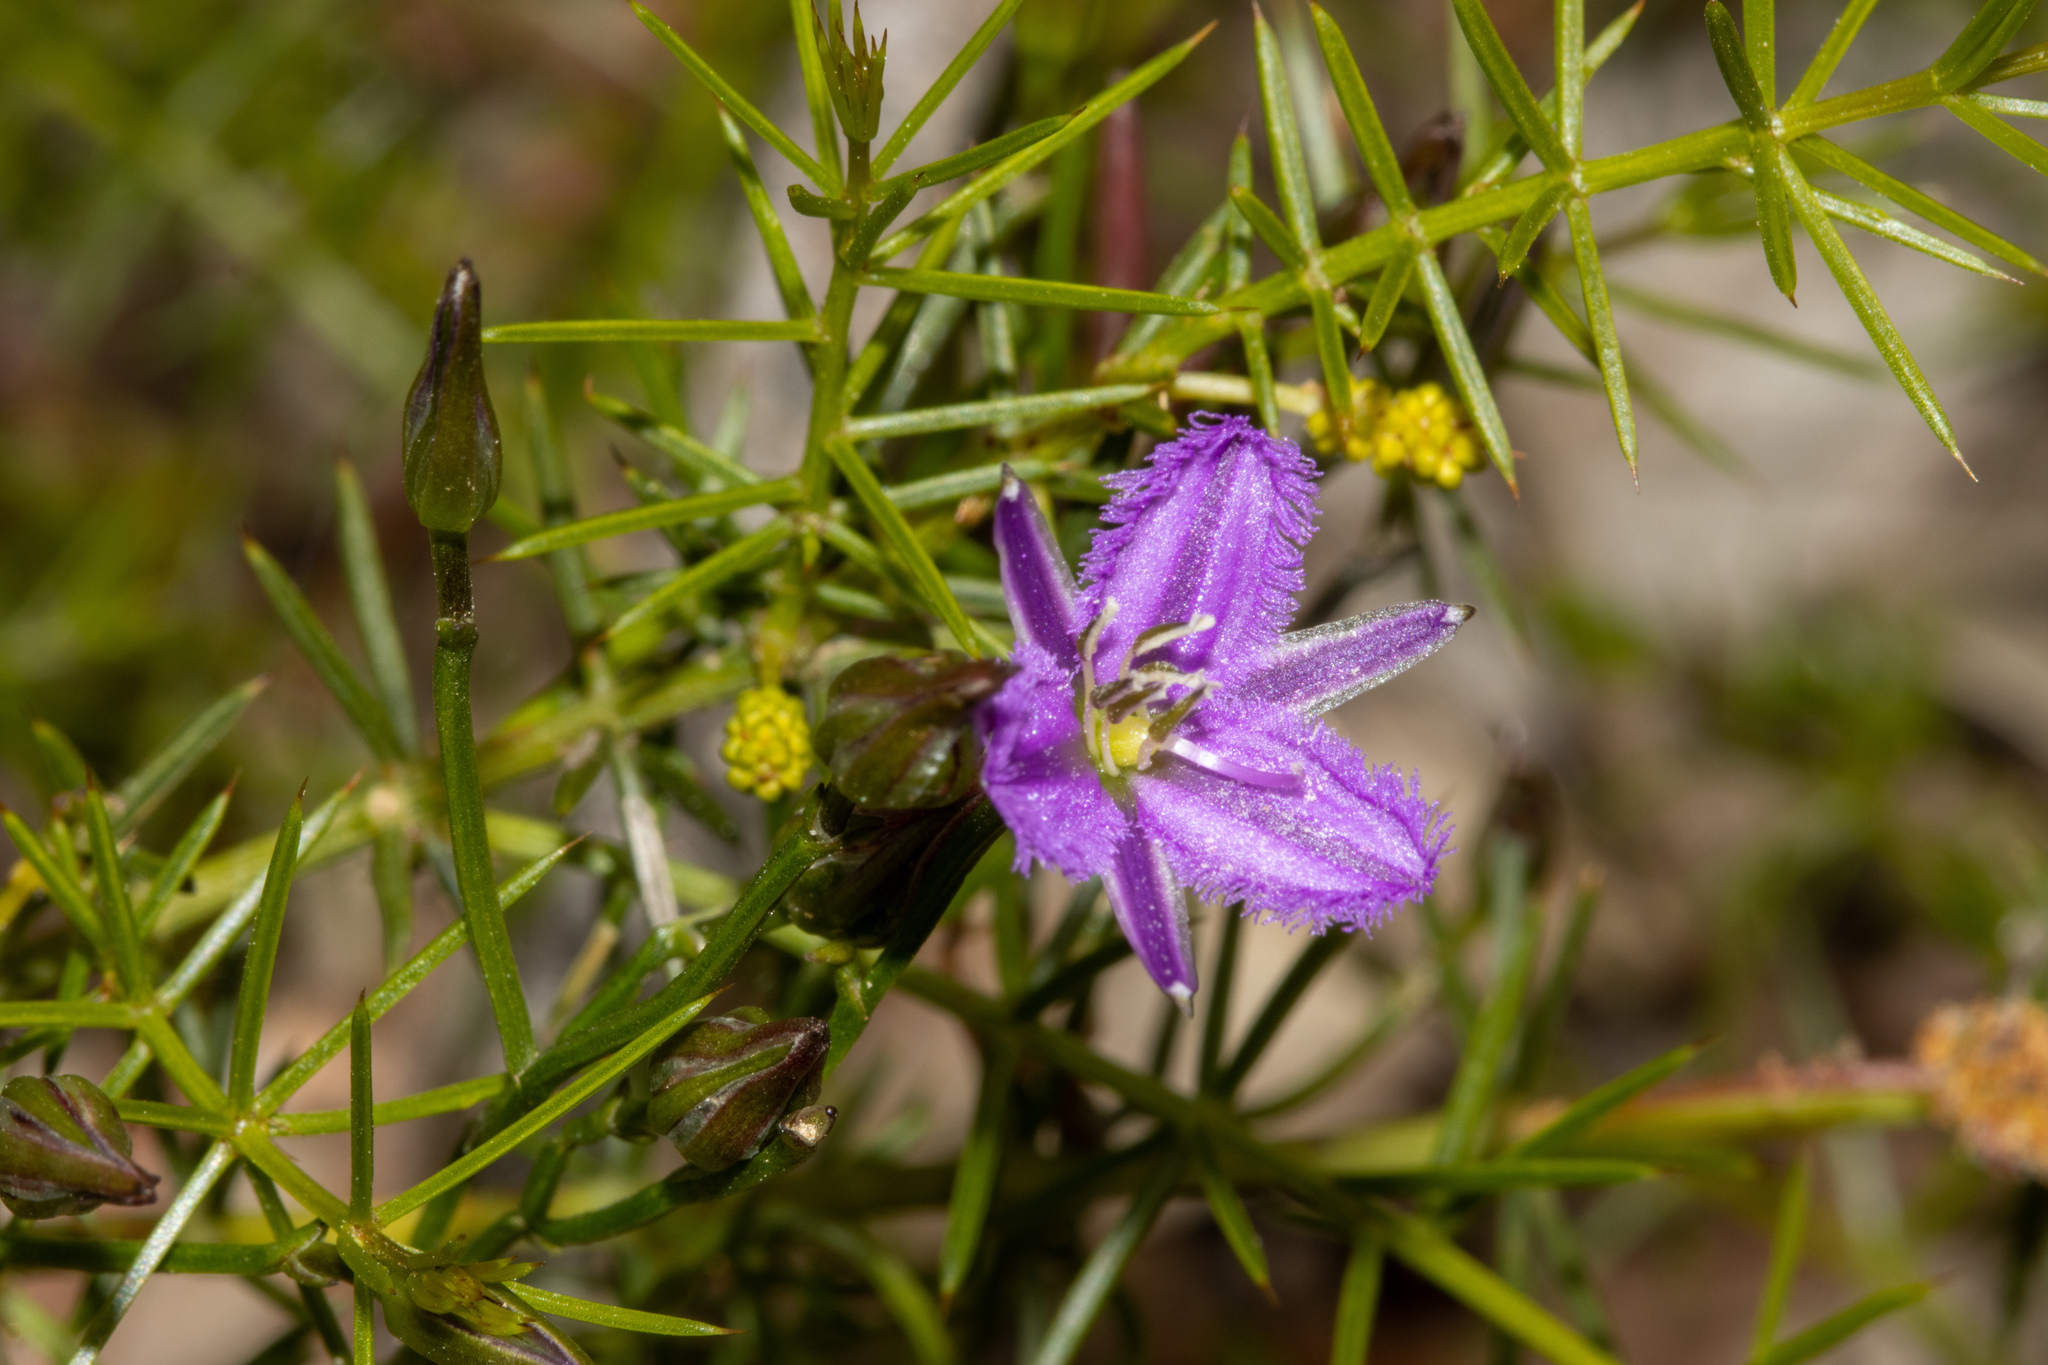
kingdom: Plantae
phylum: Tracheophyta
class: Liliopsida
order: Asparagales
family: Asparagaceae
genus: Thysanotus
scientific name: Thysanotus patersonii
